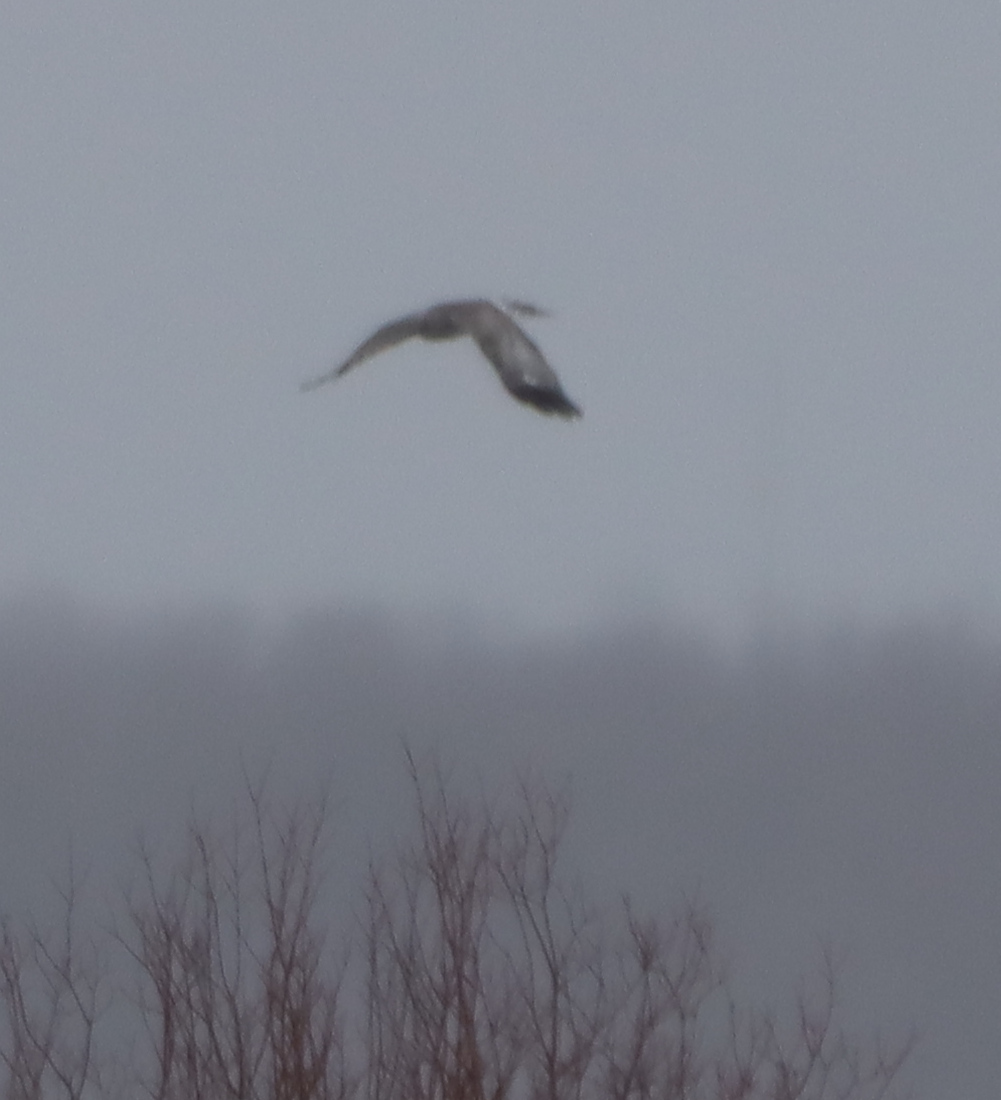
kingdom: Animalia
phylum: Chordata
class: Aves
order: Accipitriformes
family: Accipitridae
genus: Circus
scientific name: Circus cyaneus
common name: Hen harrier
